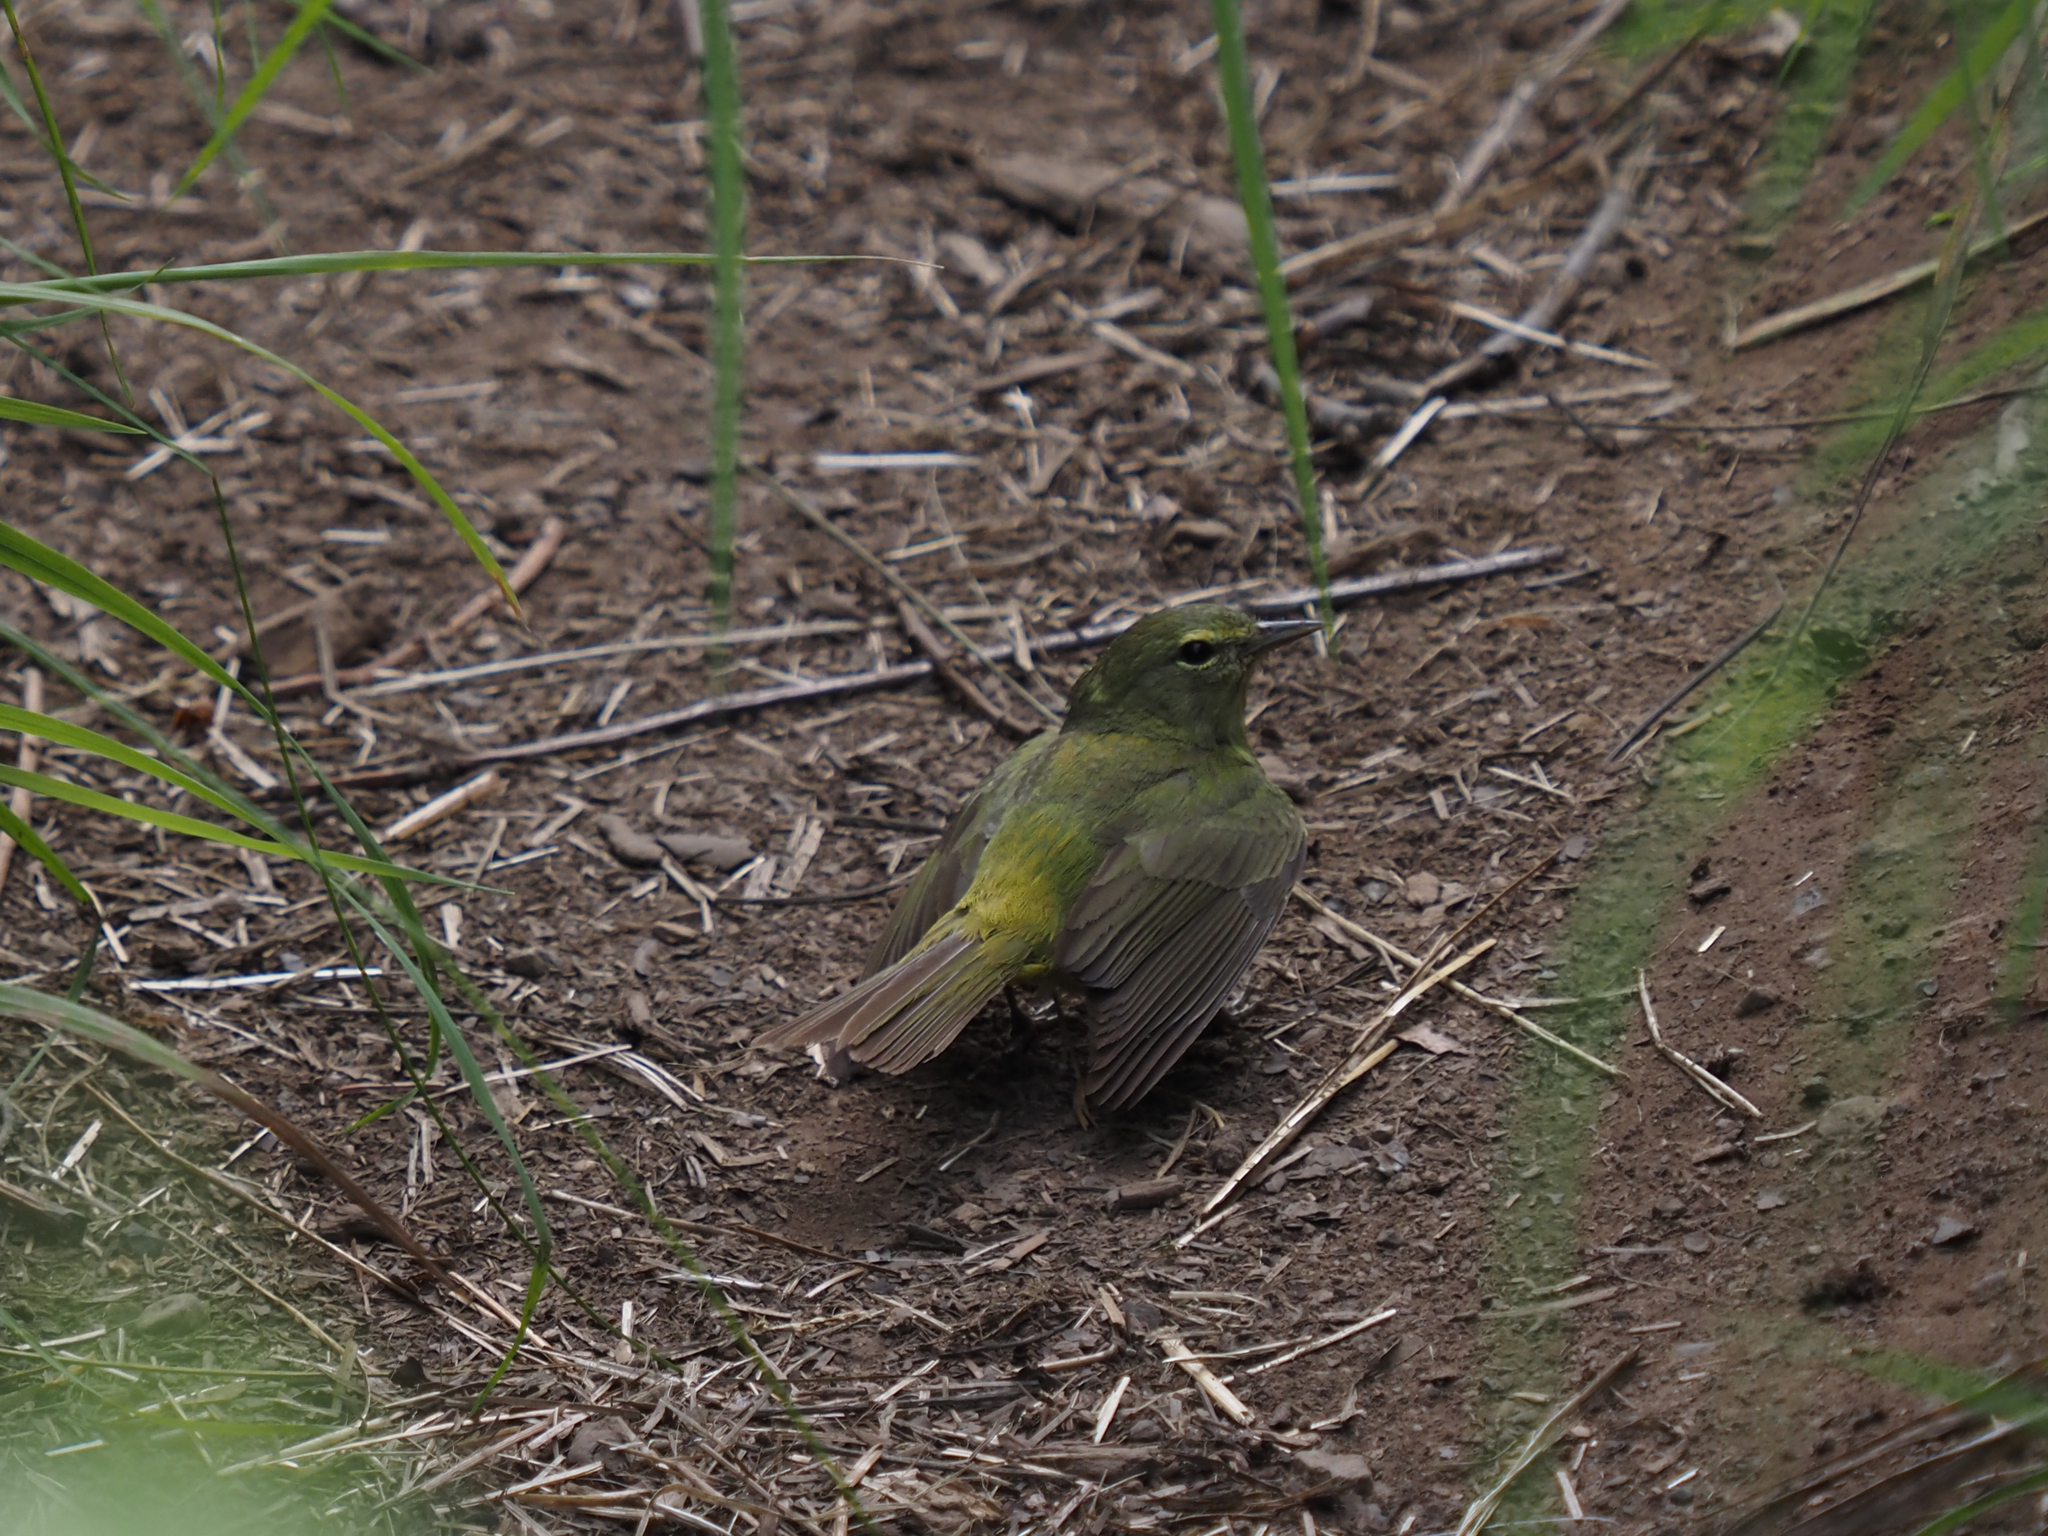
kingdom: Animalia
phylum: Chordata
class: Aves
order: Passeriformes
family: Parulidae
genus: Leiothlypis
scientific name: Leiothlypis celata
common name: Orange-crowned warbler
